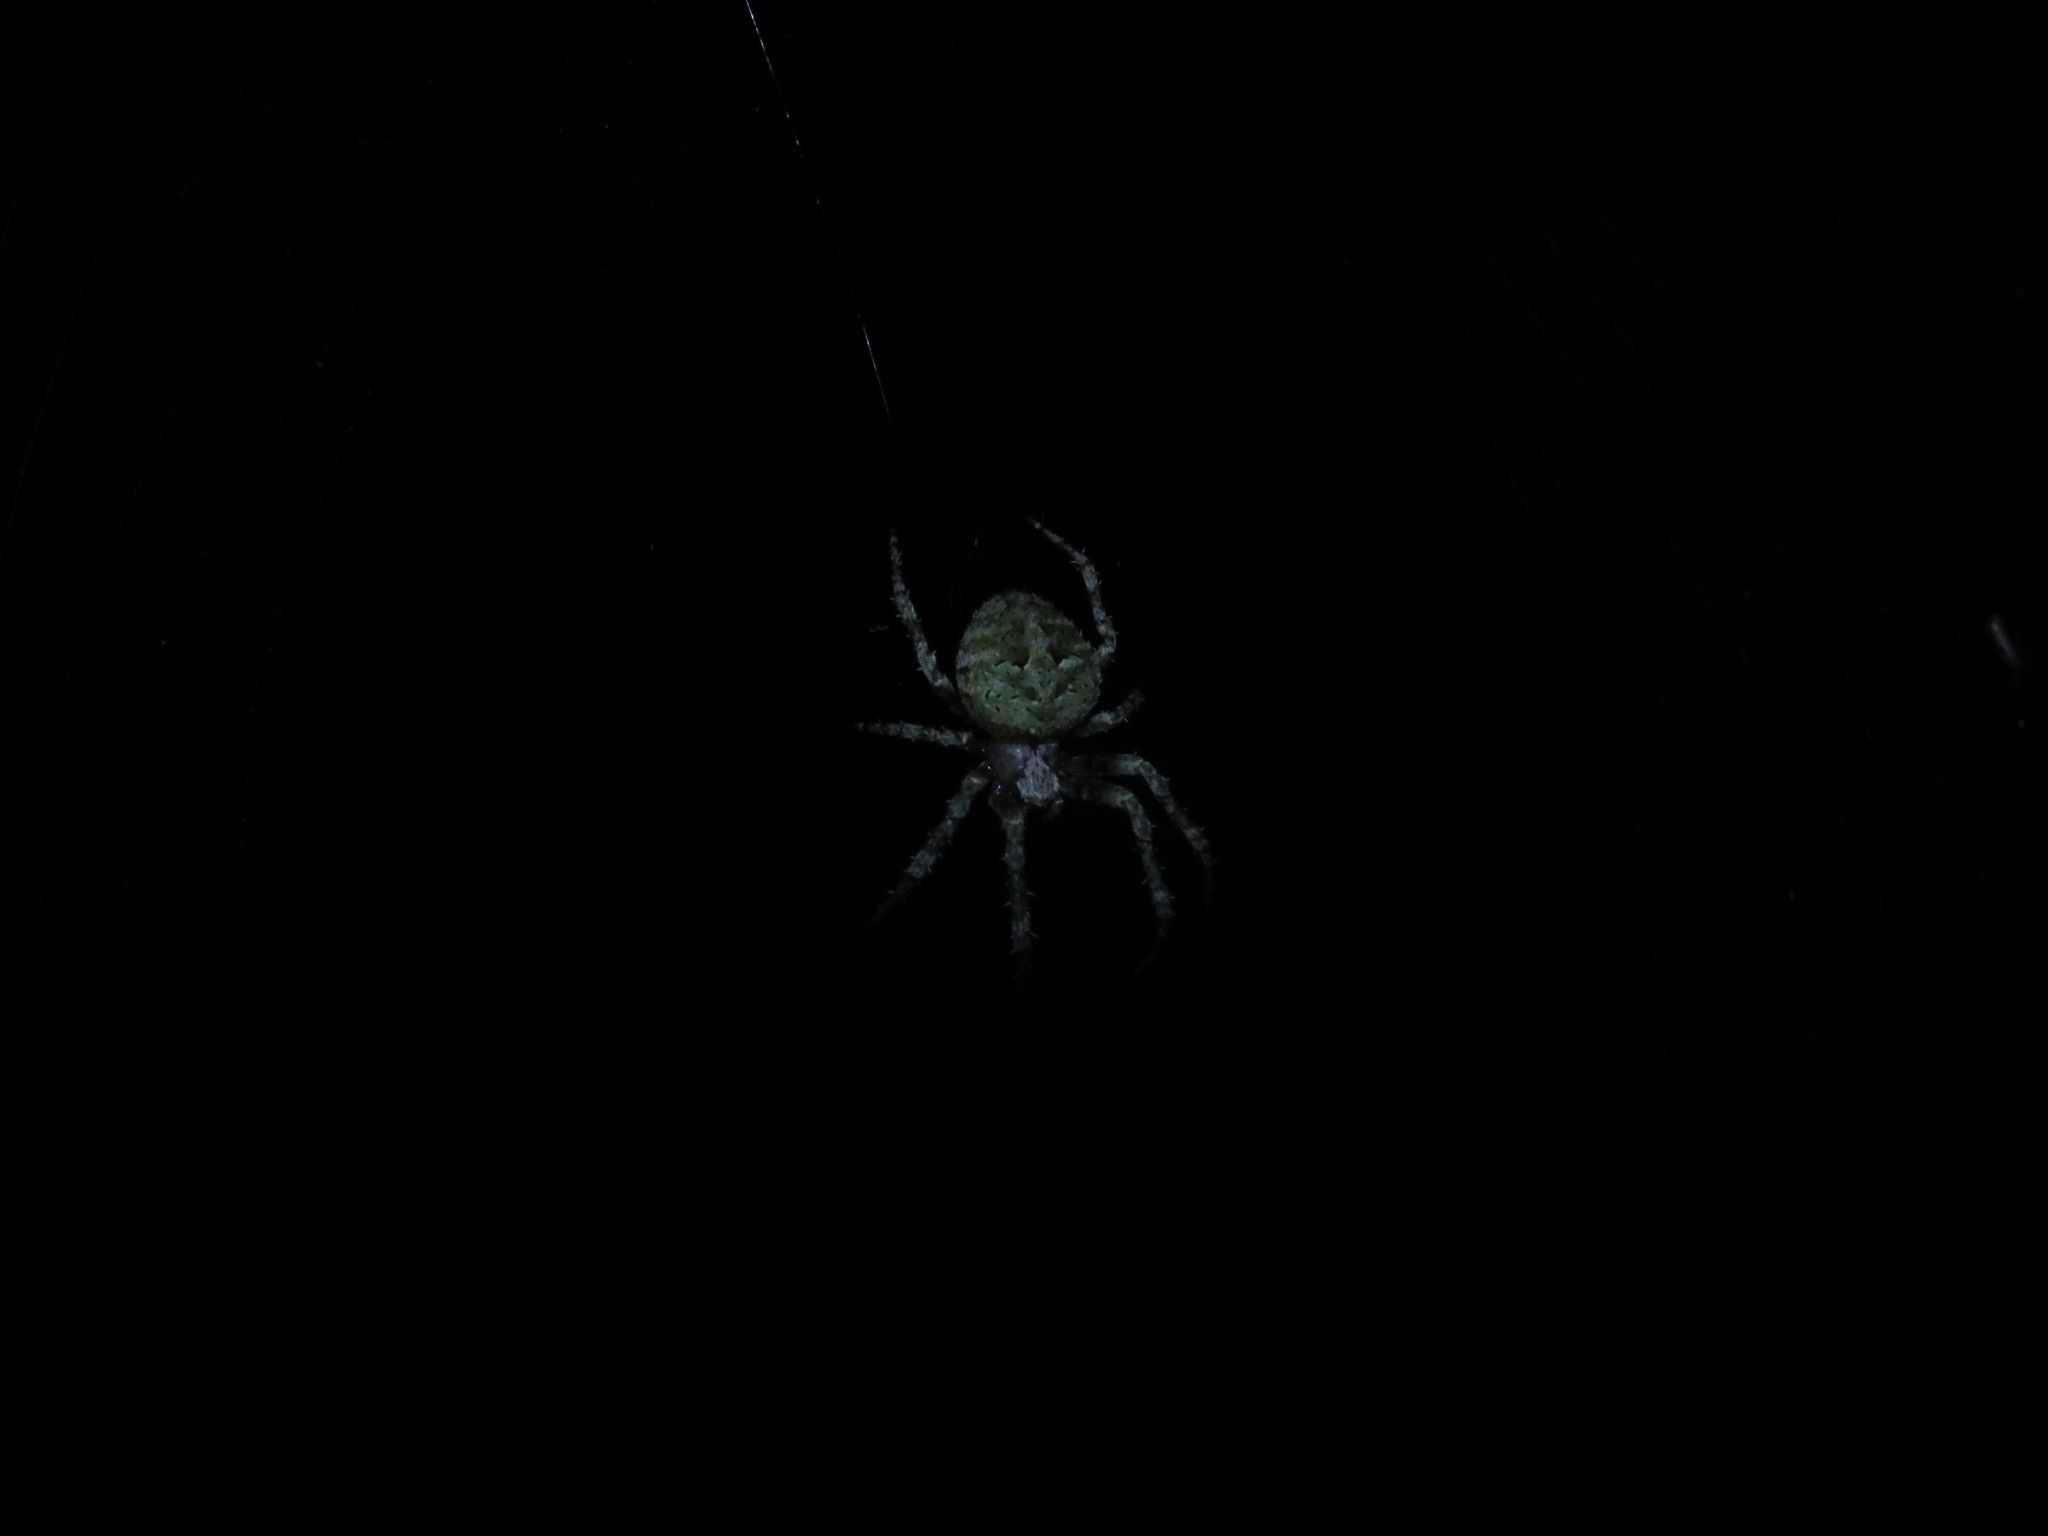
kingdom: Animalia
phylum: Arthropoda
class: Arachnida
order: Araneae
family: Araneidae
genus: Cryptaranea
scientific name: Cryptaranea atrihastula
